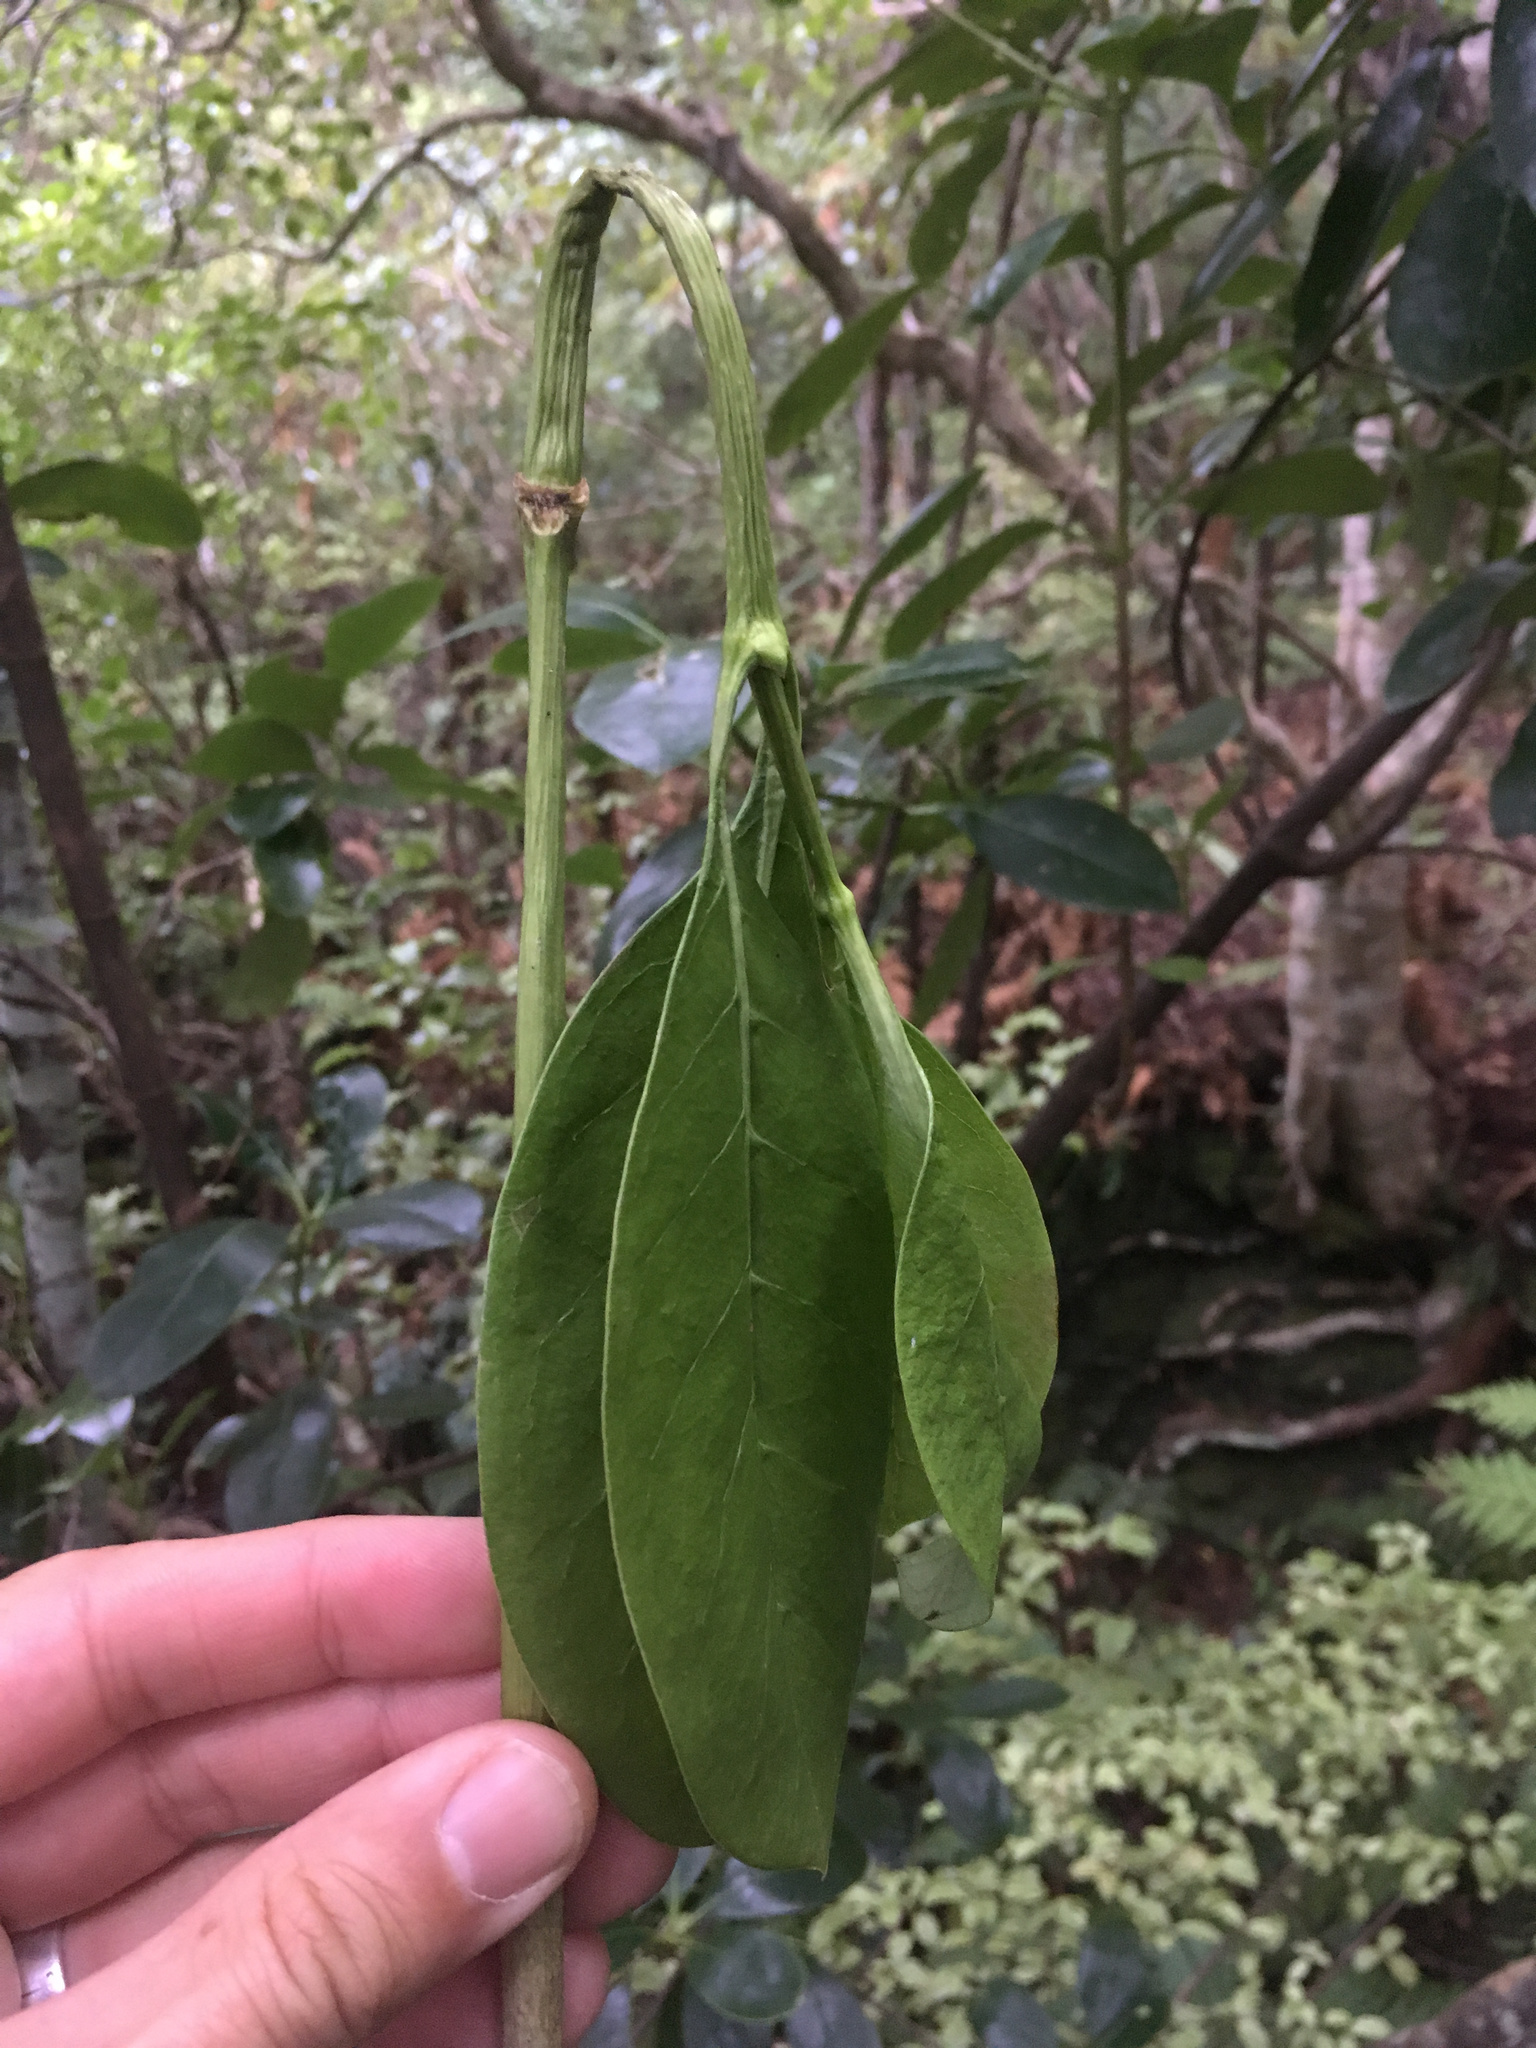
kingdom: Plantae
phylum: Tracheophyta
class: Magnoliopsida
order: Gentianales
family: Rubiaceae
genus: Coprosma
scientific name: Coprosma lucida
